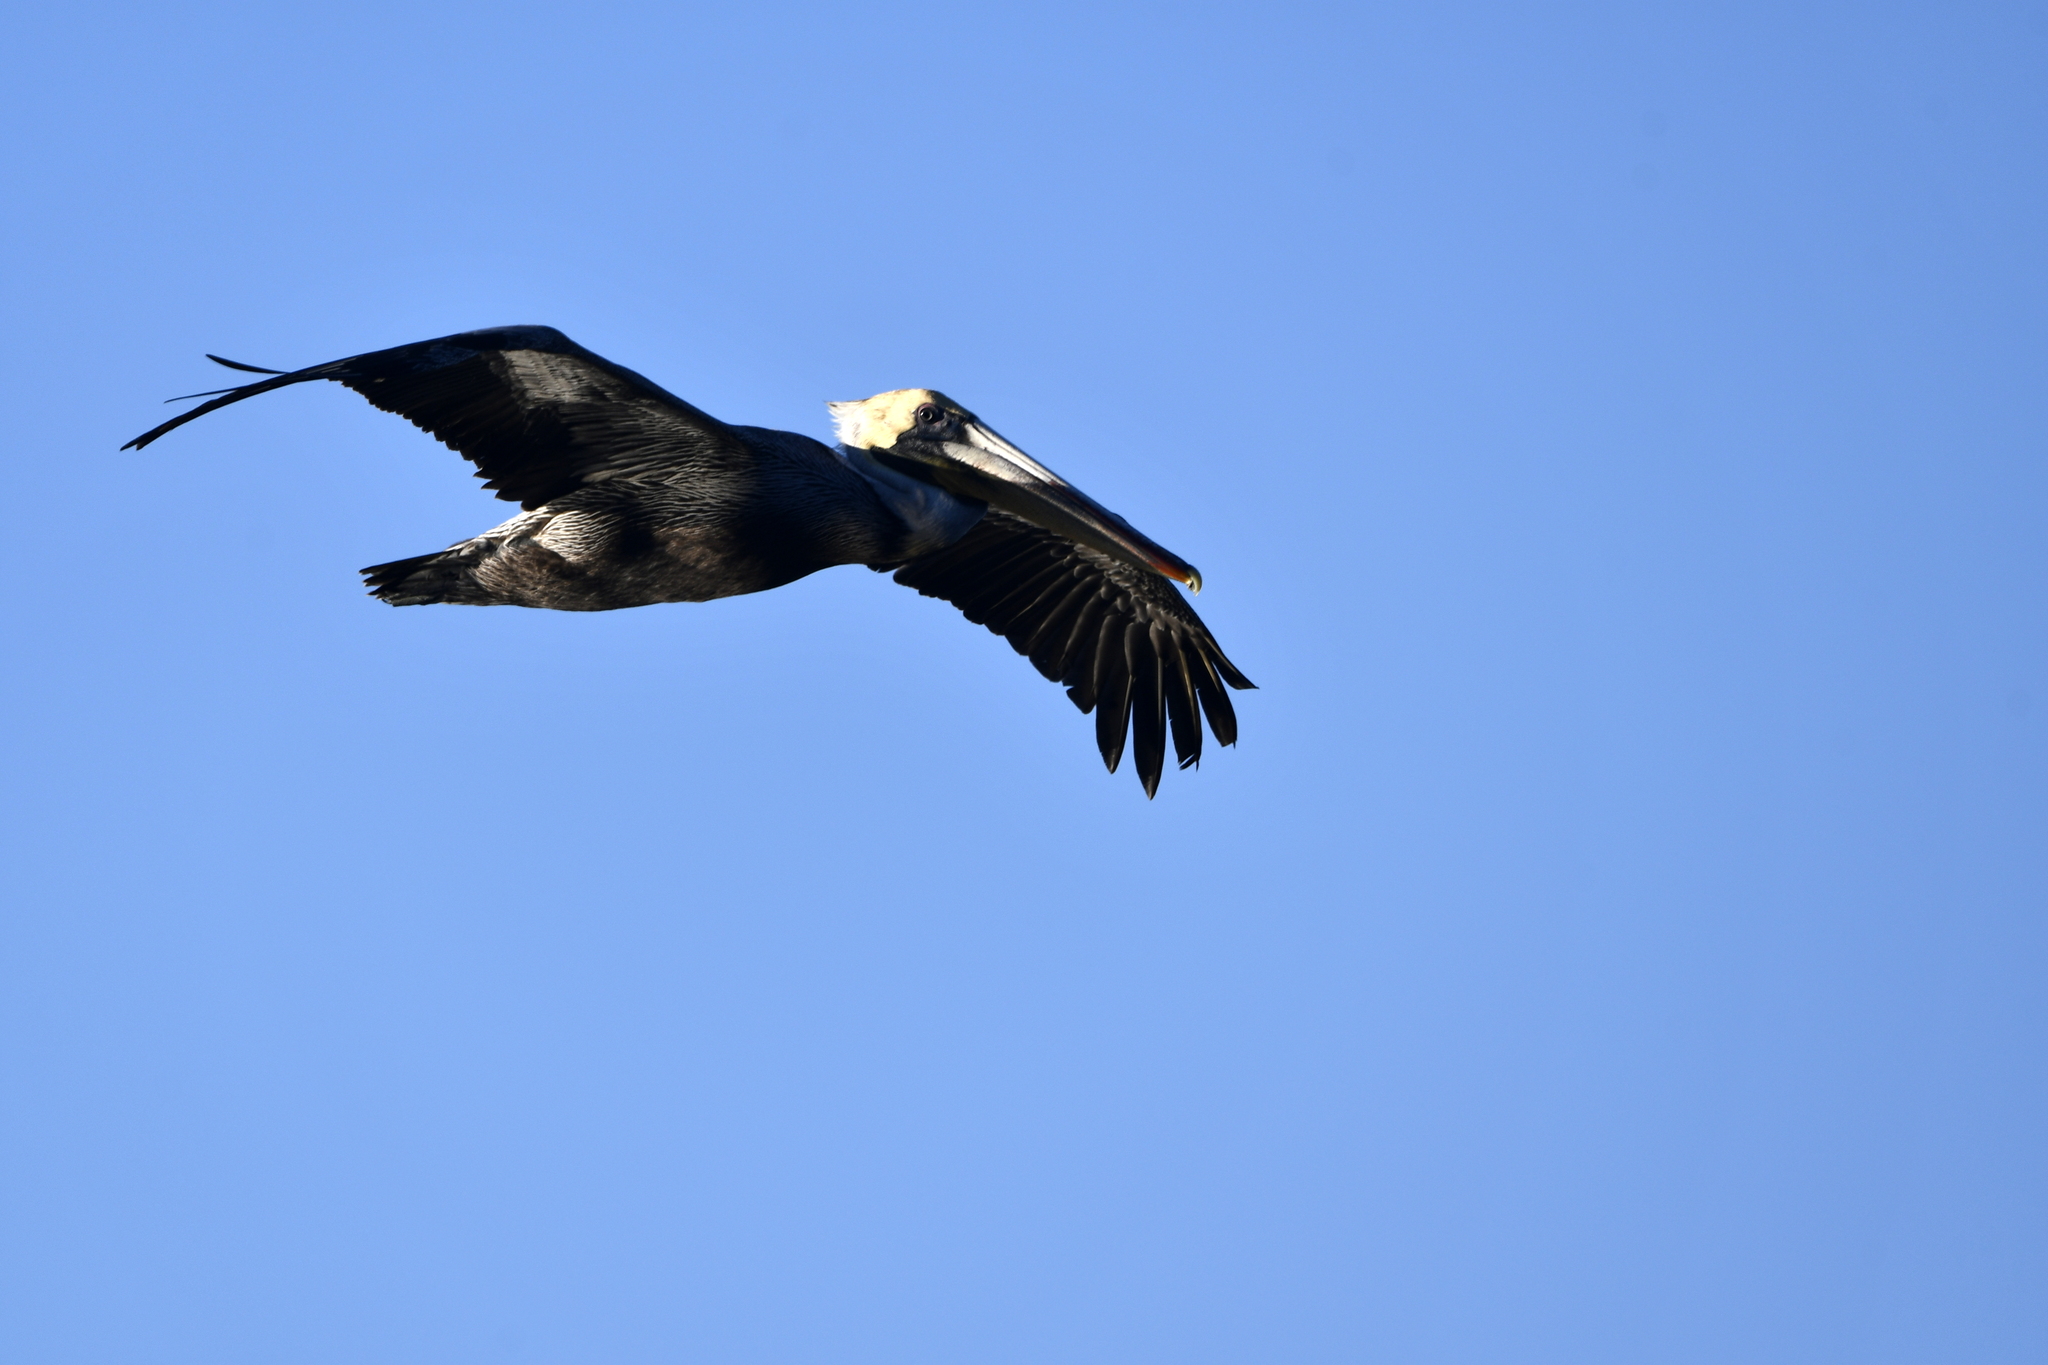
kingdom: Animalia
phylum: Chordata
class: Aves
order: Pelecaniformes
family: Pelecanidae
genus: Pelecanus
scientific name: Pelecanus occidentalis
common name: Brown pelican
